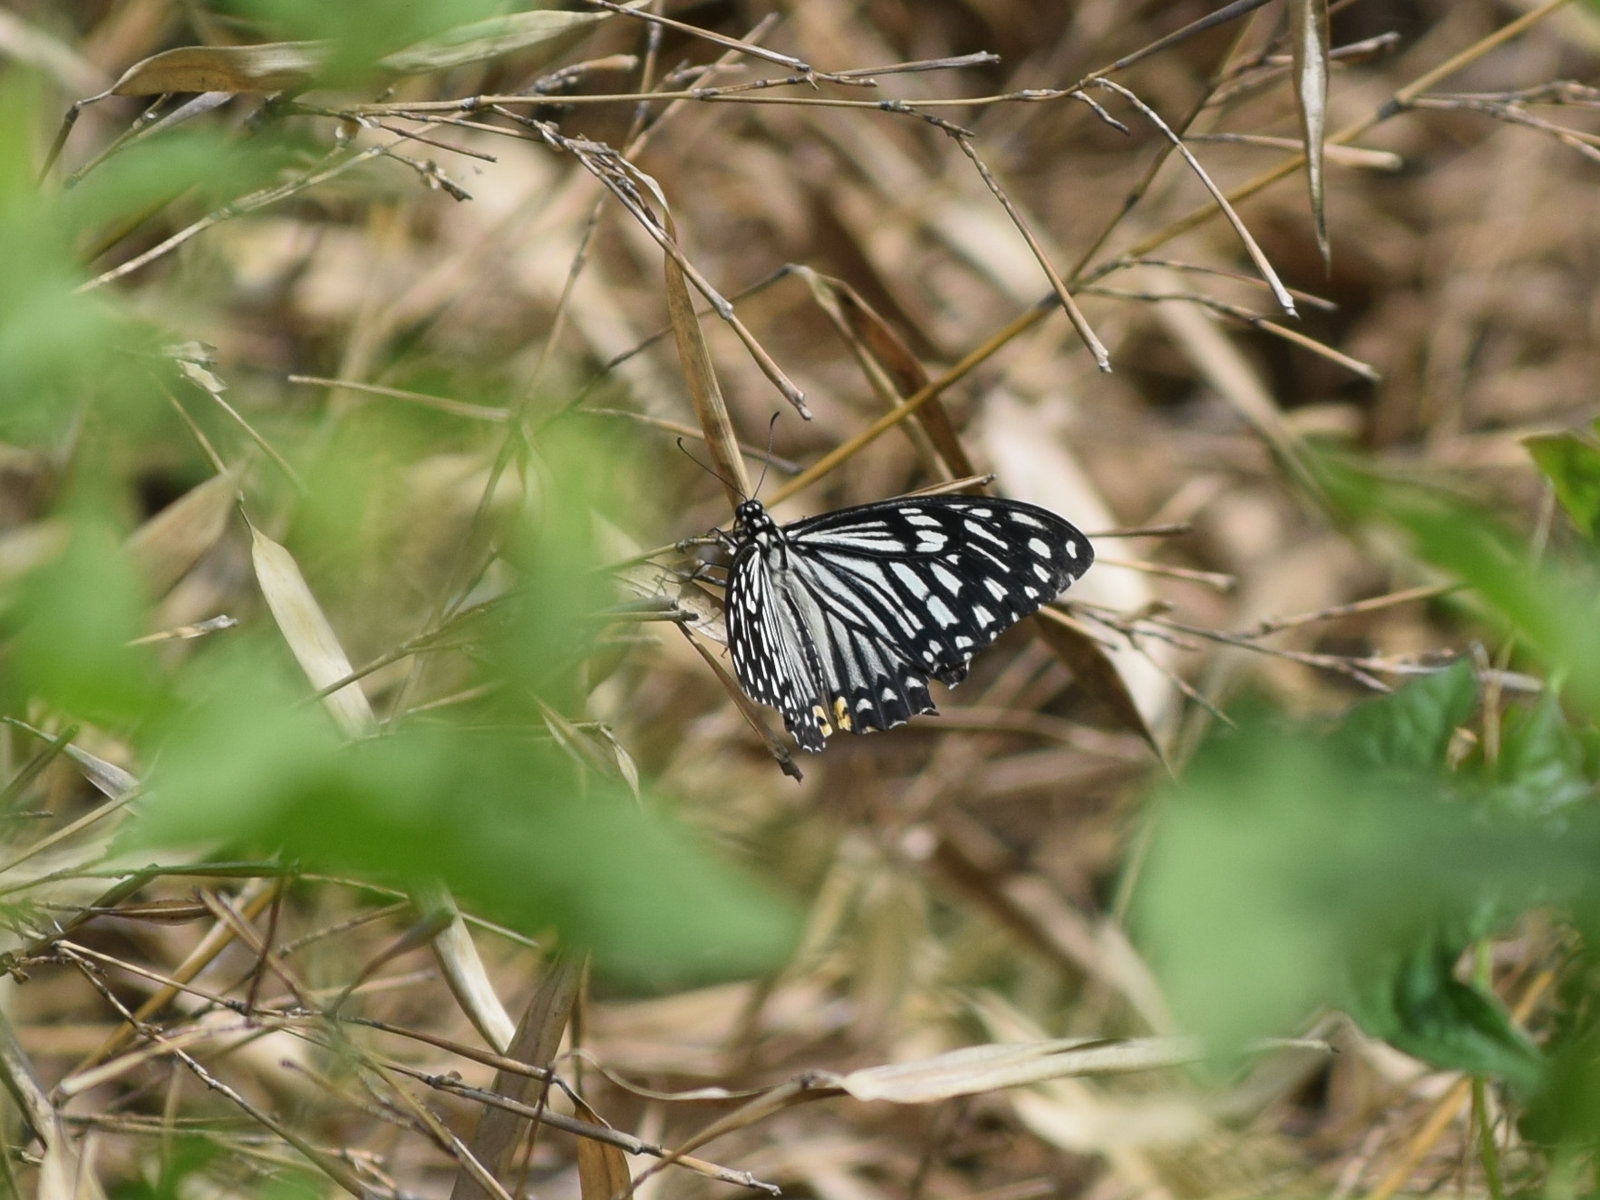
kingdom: Animalia
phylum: Arthropoda
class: Insecta
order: Lepidoptera
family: Papilionidae
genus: Chilasa
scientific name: Chilasa clytia
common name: Common mime
